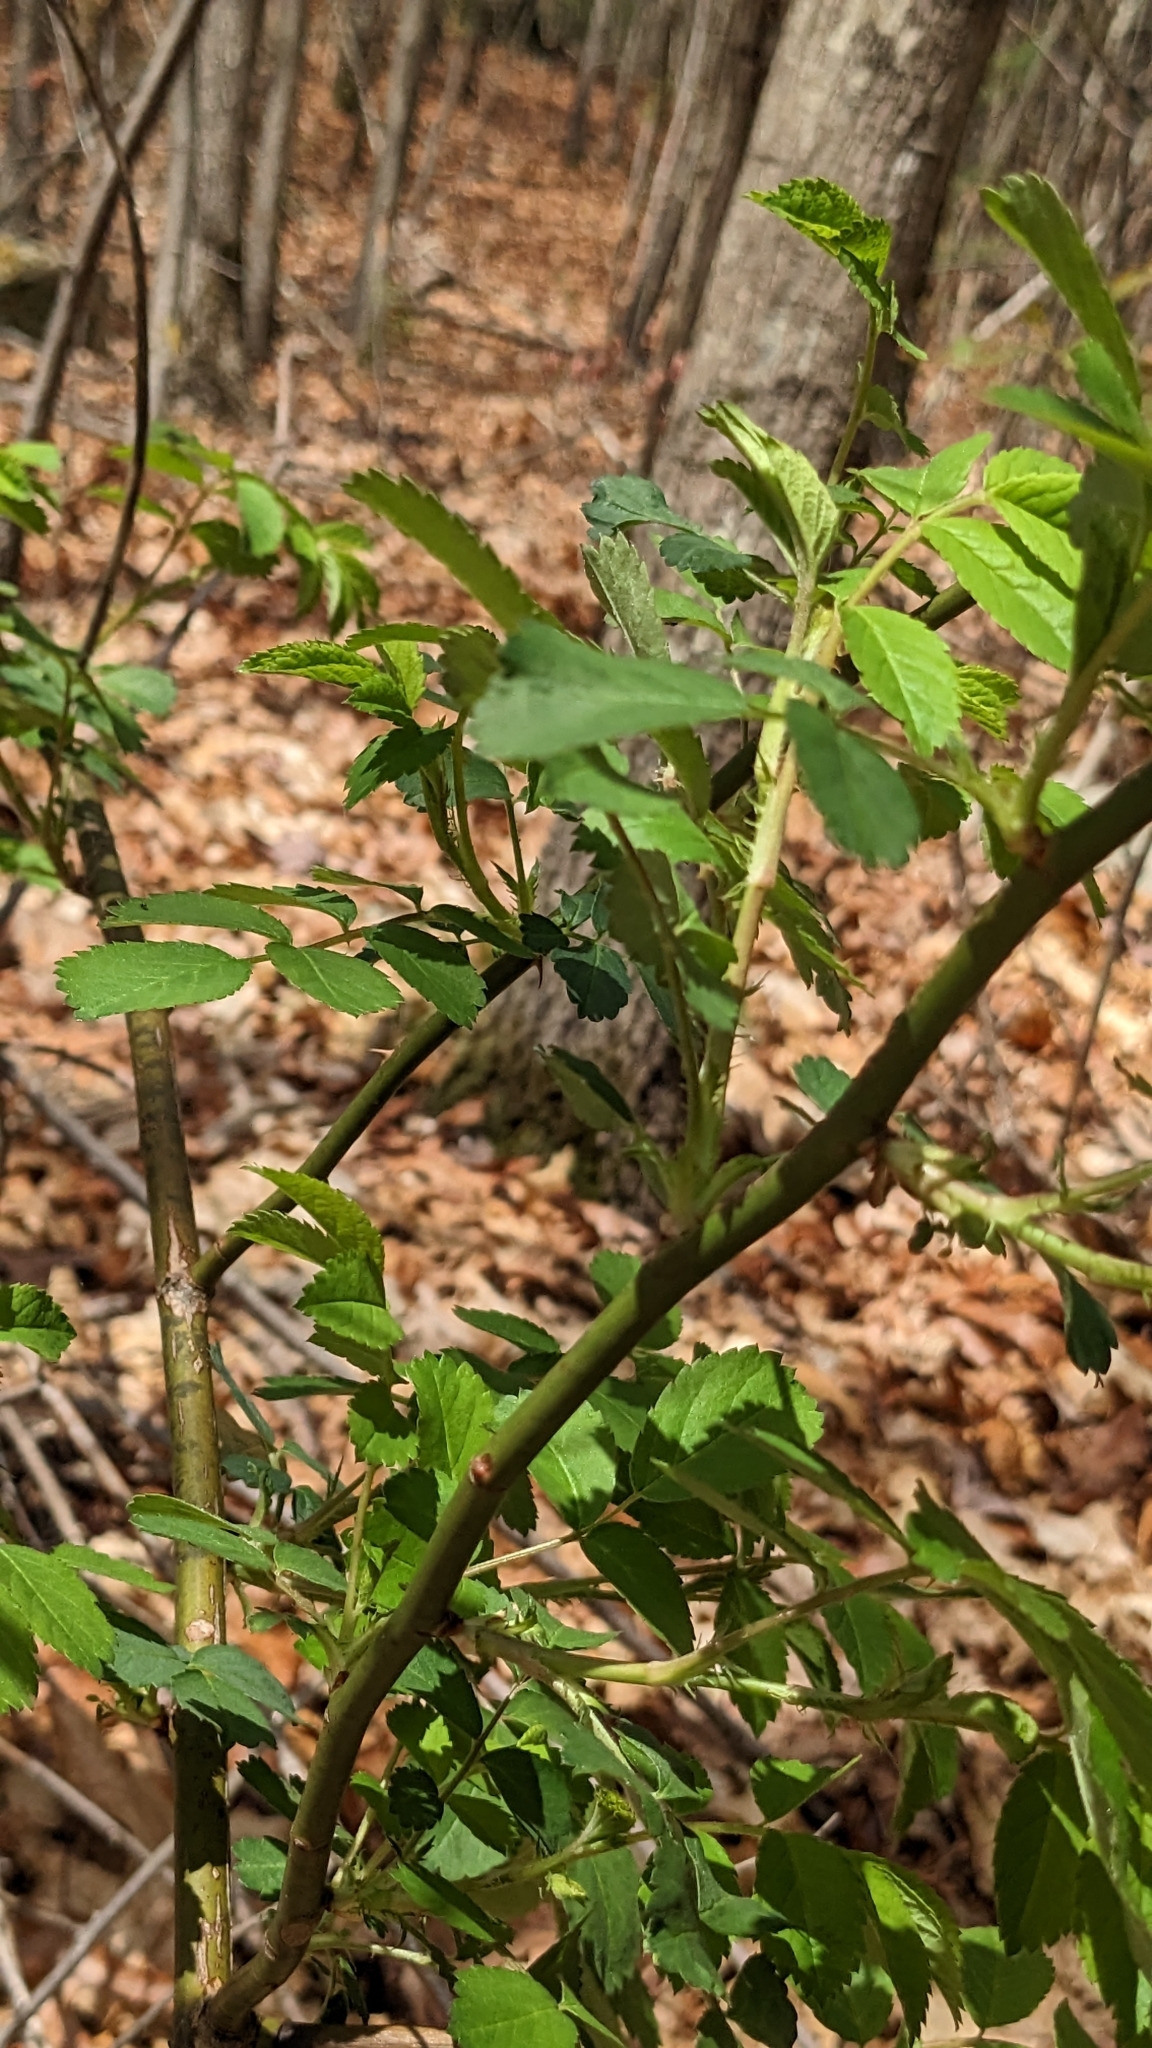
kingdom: Plantae
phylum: Tracheophyta
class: Magnoliopsida
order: Rosales
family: Rosaceae
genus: Rosa
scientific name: Rosa multiflora
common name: Multiflora rose
